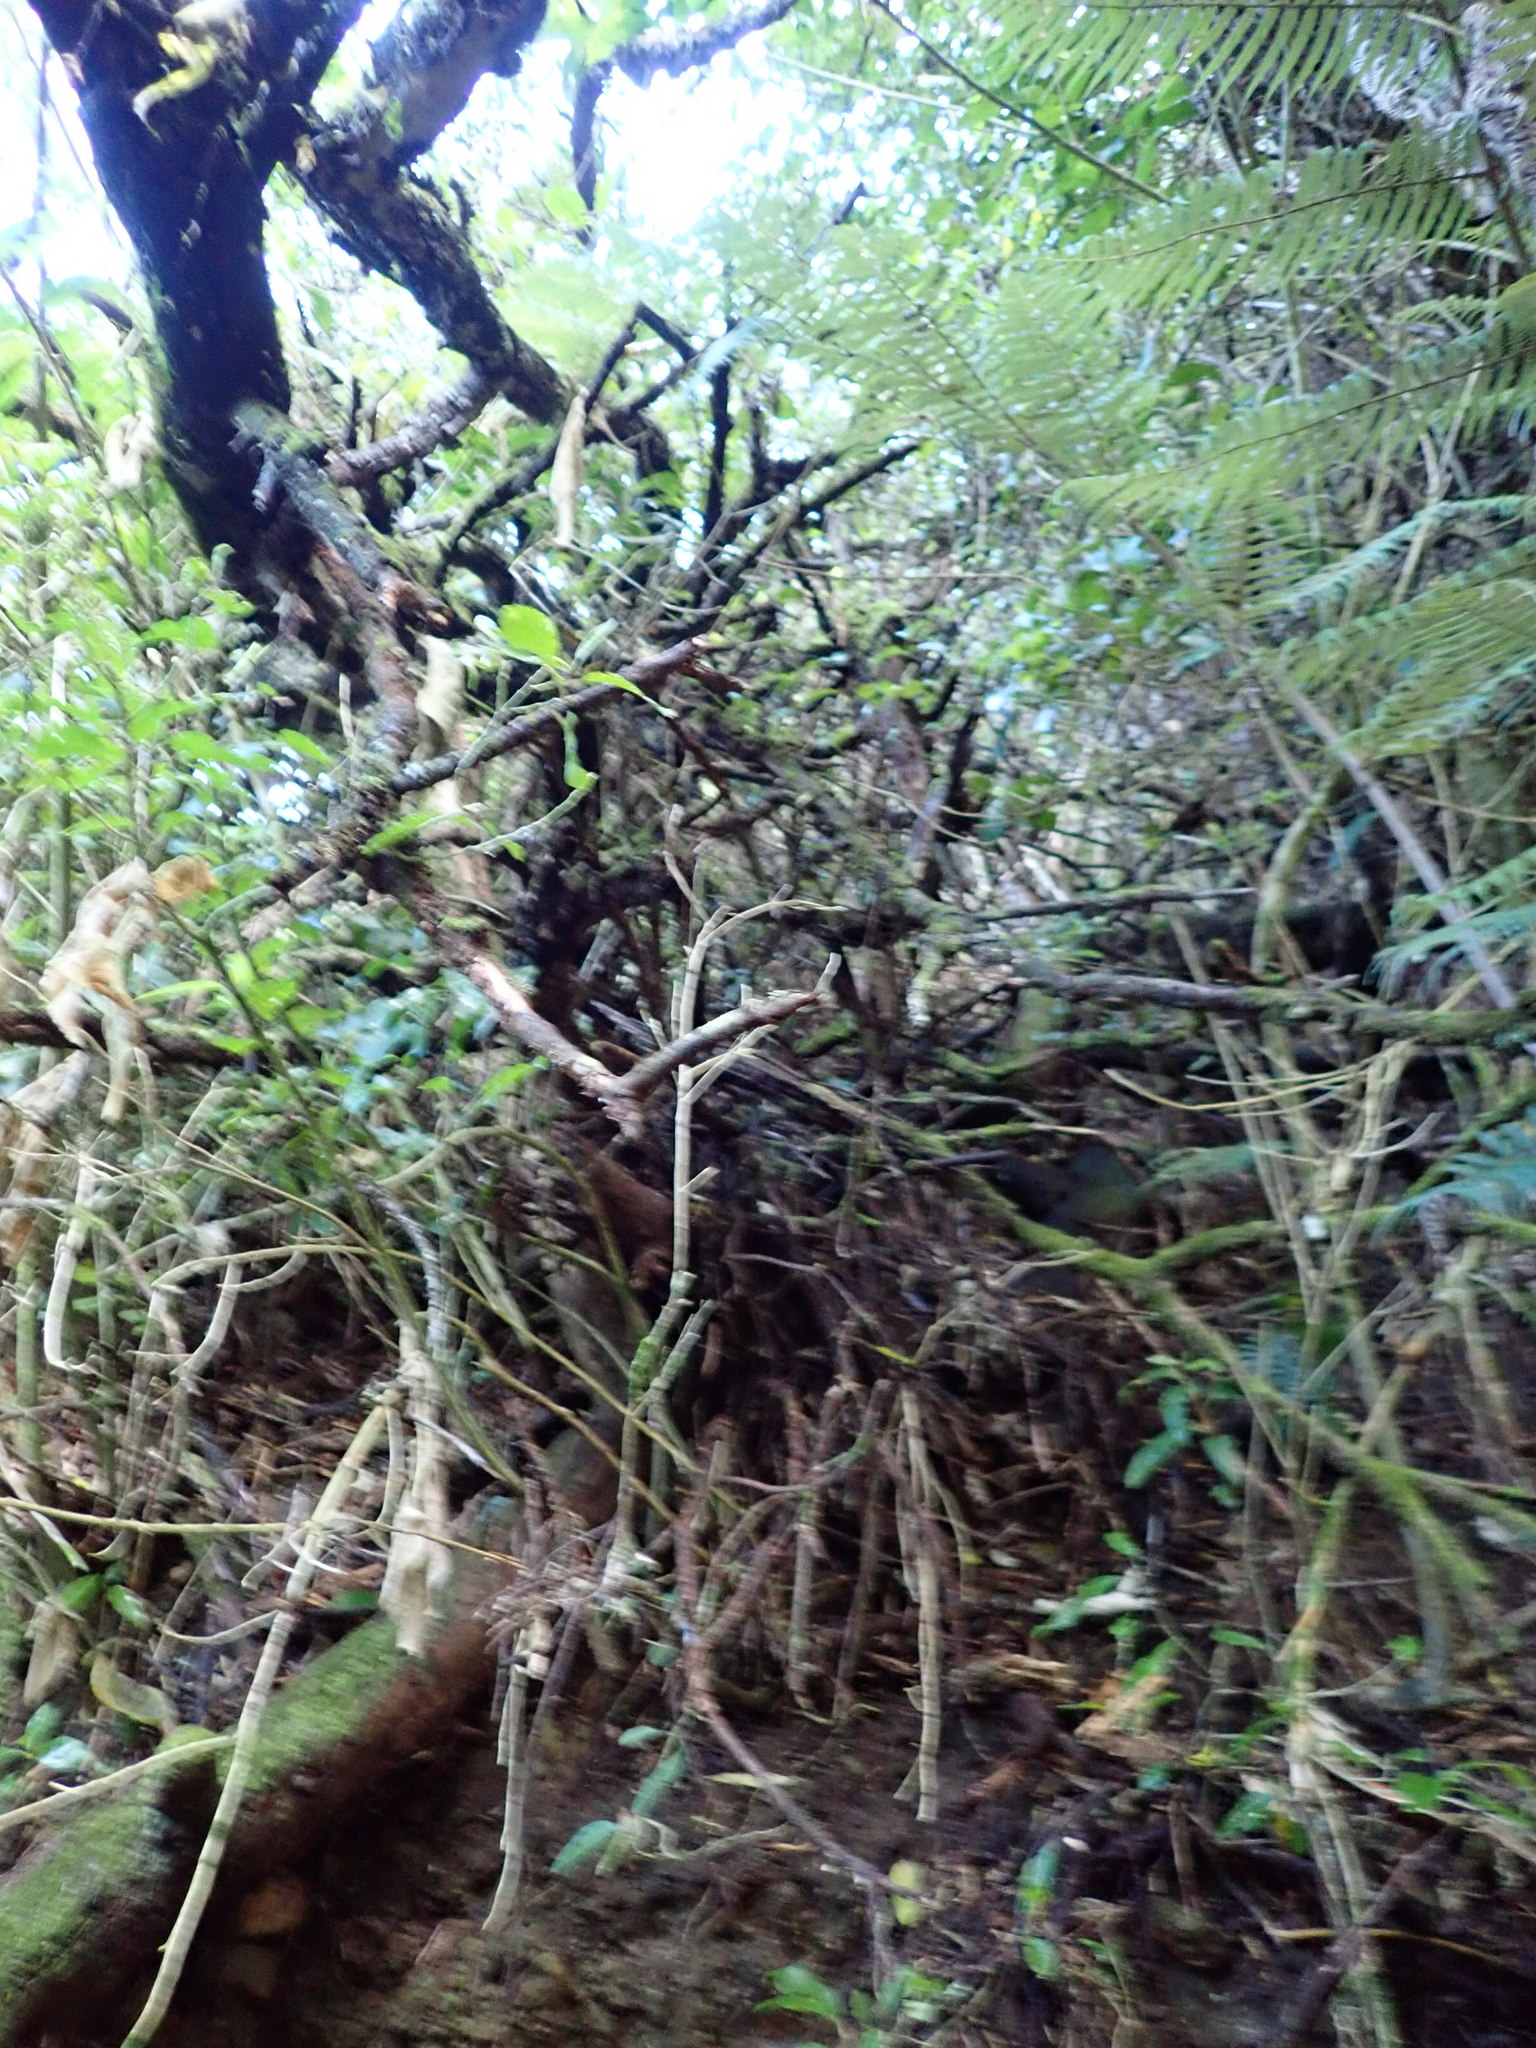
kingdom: Plantae
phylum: Tracheophyta
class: Magnoliopsida
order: Apiales
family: Araliaceae
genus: Schefflera
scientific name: Schefflera digitata
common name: Pate
